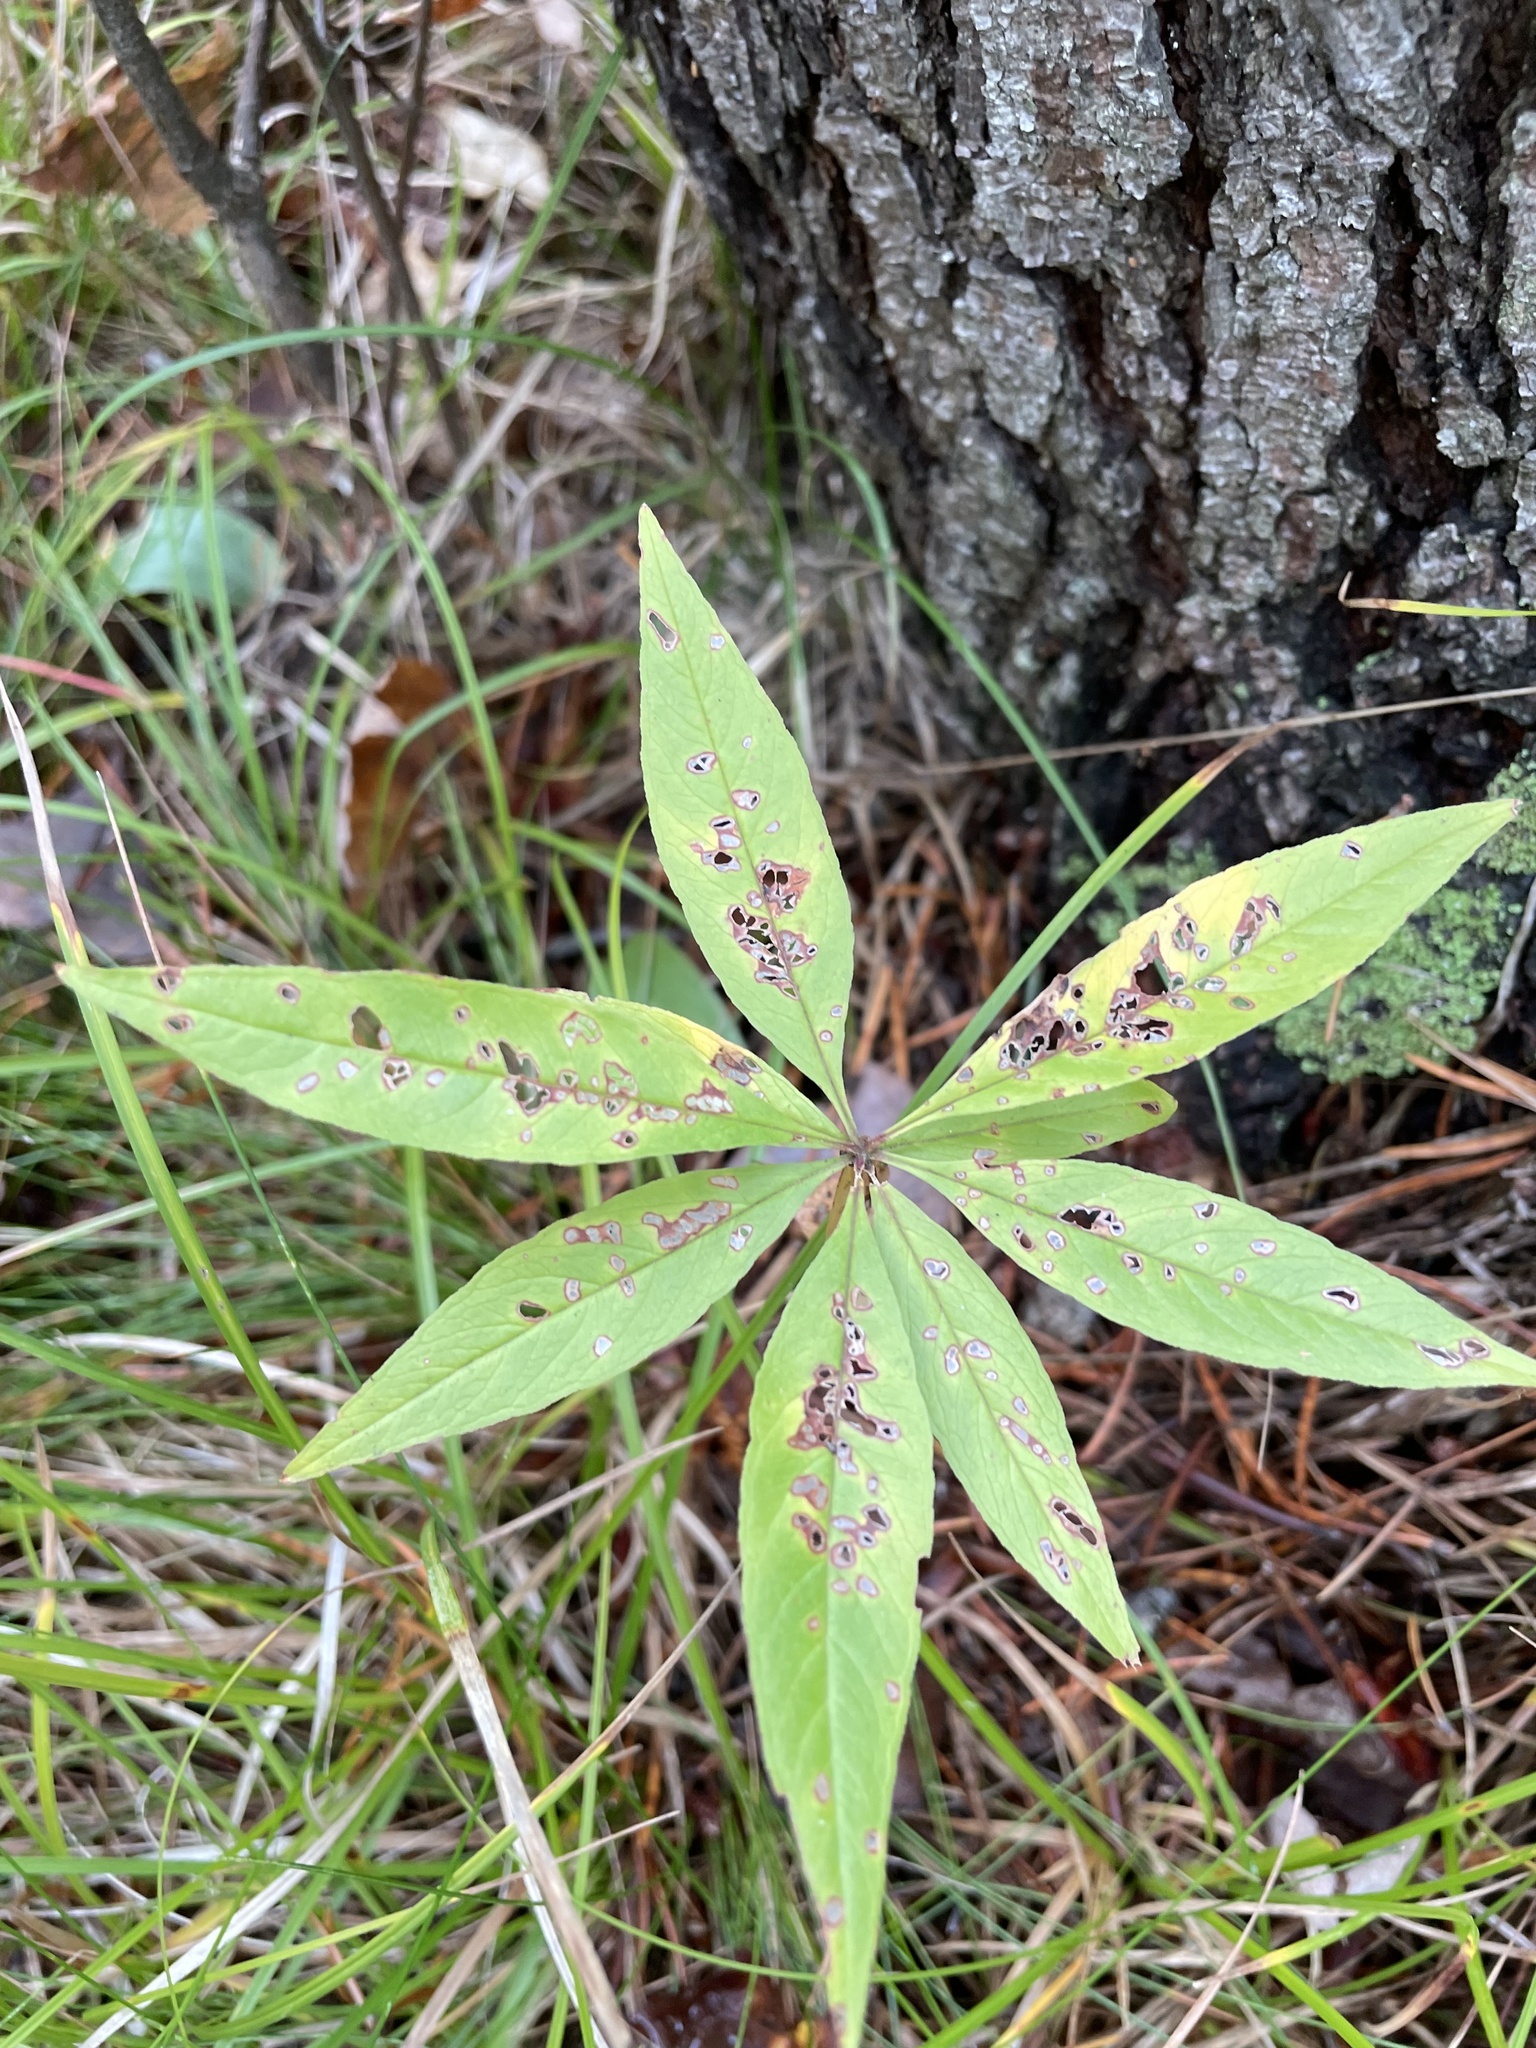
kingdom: Plantae
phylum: Tracheophyta
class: Magnoliopsida
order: Ericales
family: Primulaceae
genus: Lysimachia
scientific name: Lysimachia borealis
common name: American starflower
